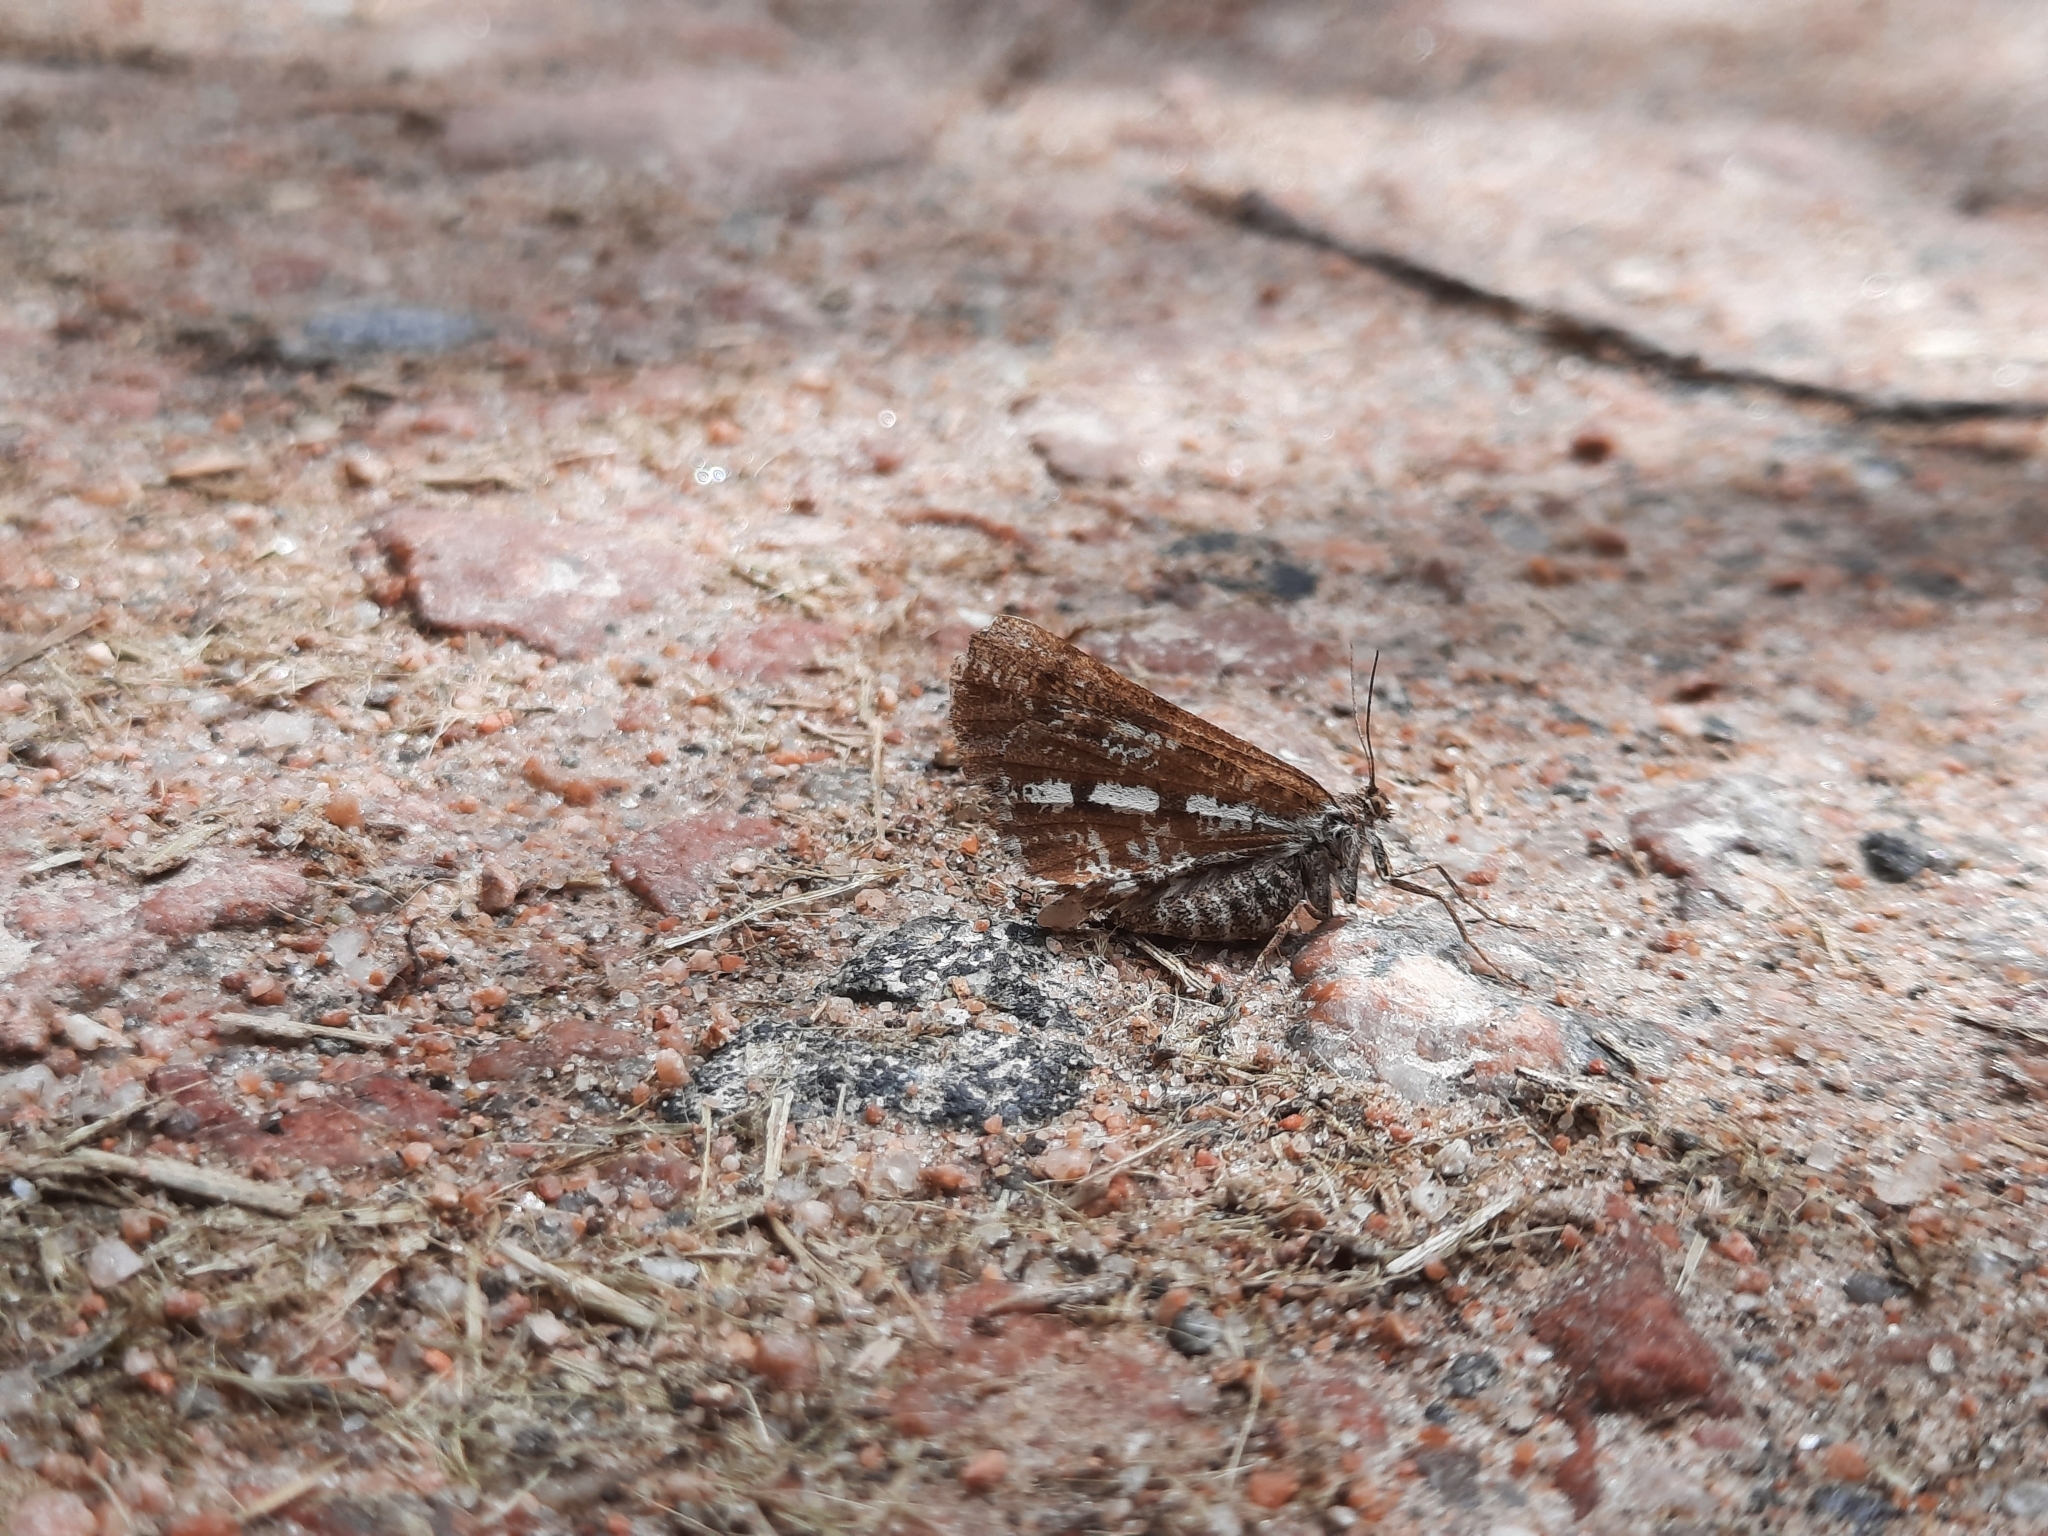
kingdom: Animalia
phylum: Arthropoda
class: Insecta
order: Lepidoptera
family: Geometridae
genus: Bupalus
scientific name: Bupalus piniaria
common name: Bordered white
